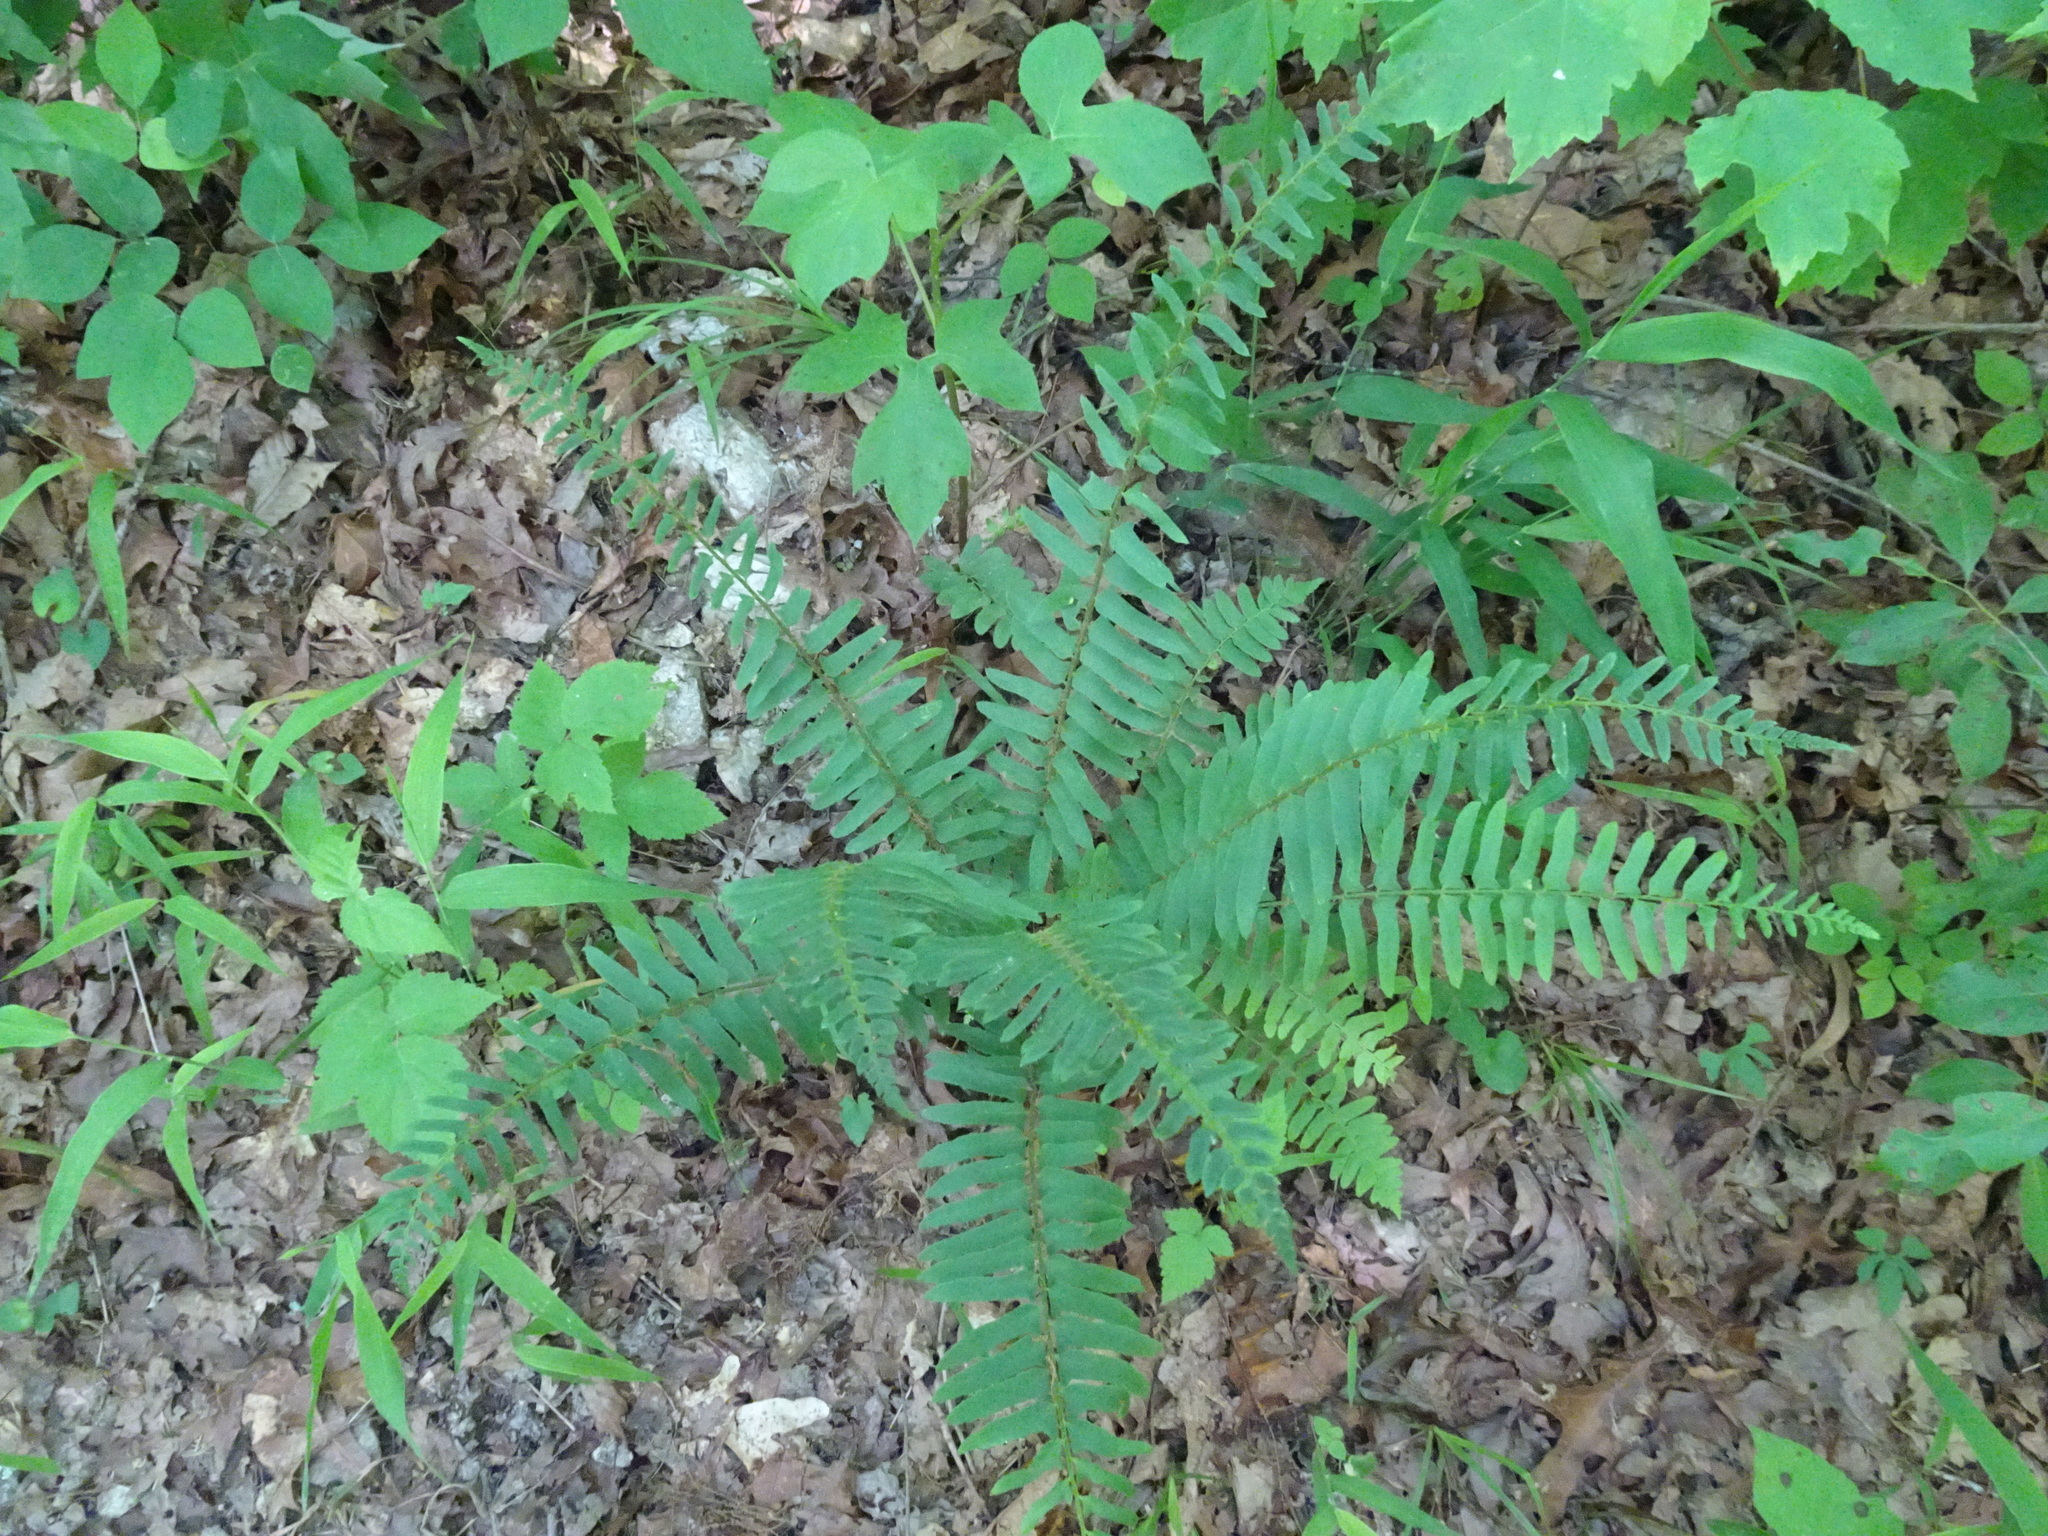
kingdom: Plantae
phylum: Tracheophyta
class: Polypodiopsida
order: Polypodiales
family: Dryopteridaceae
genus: Polystichum
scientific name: Polystichum acrostichoides
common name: Christmas fern
